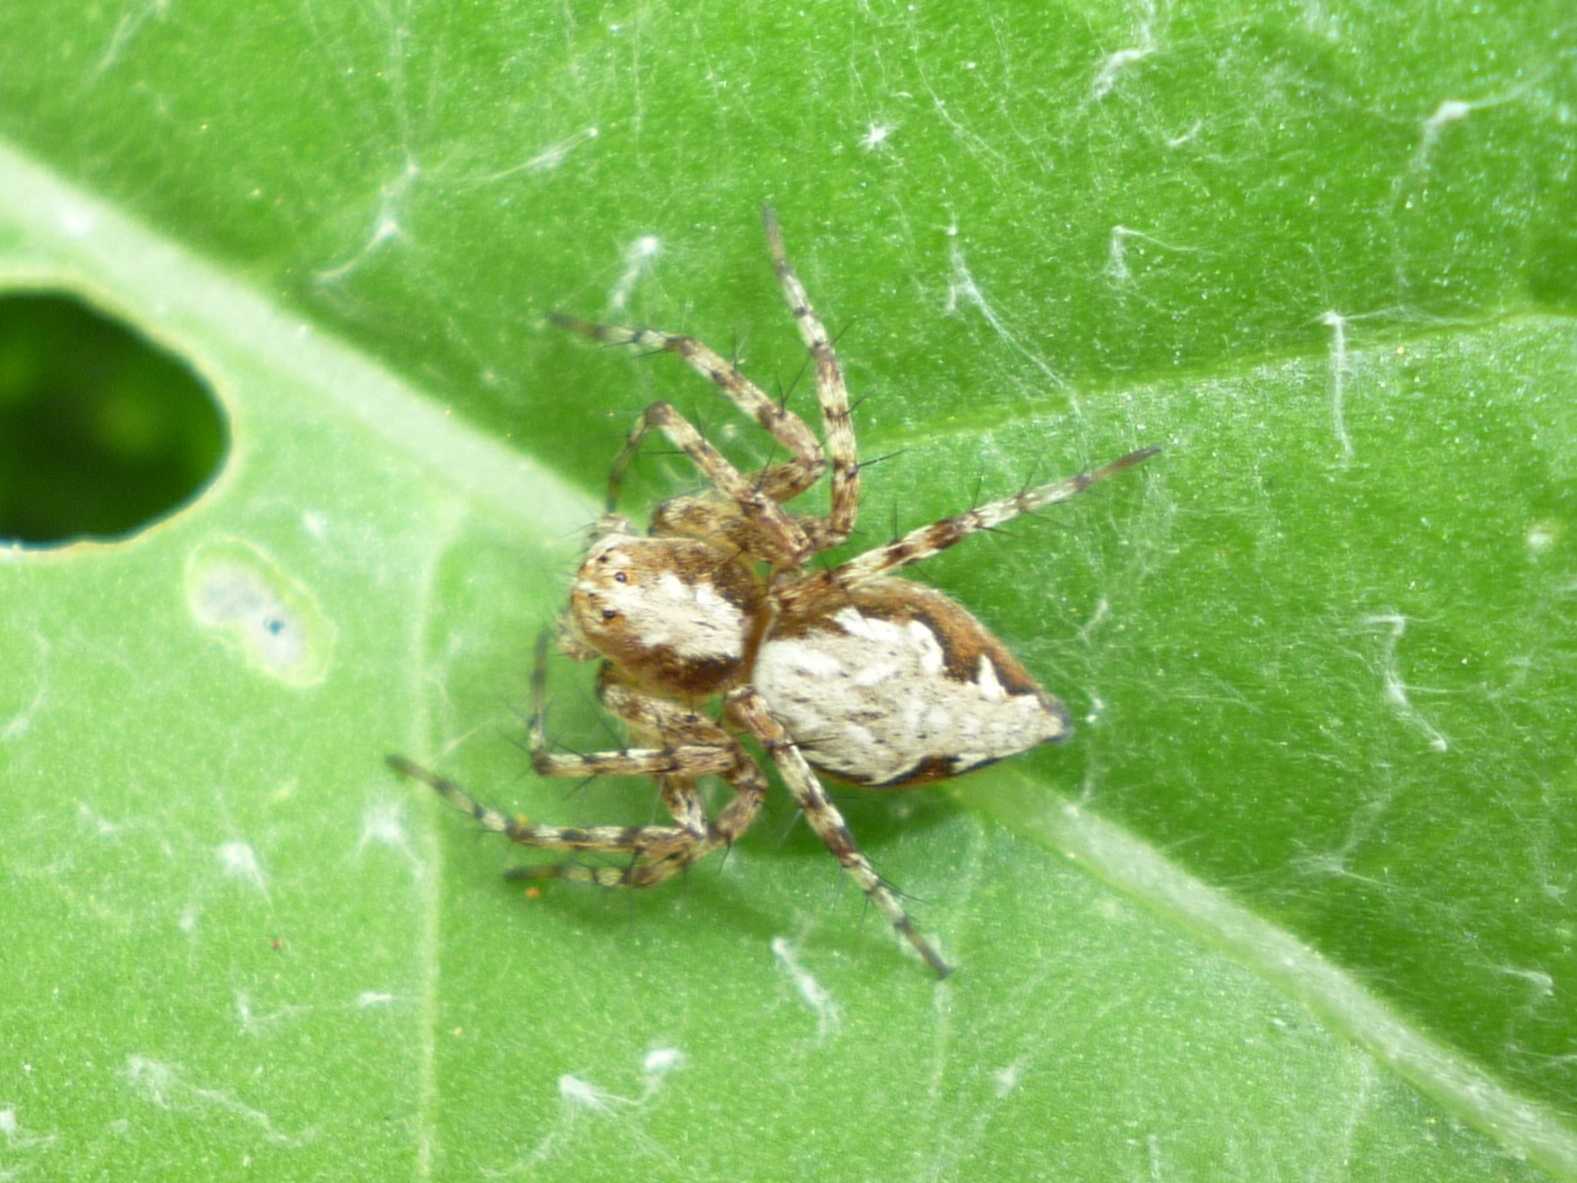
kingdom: Animalia
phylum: Arthropoda
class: Arachnida
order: Araneae
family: Oxyopidae
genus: Oxyopes
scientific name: Oxyopes scalaris
